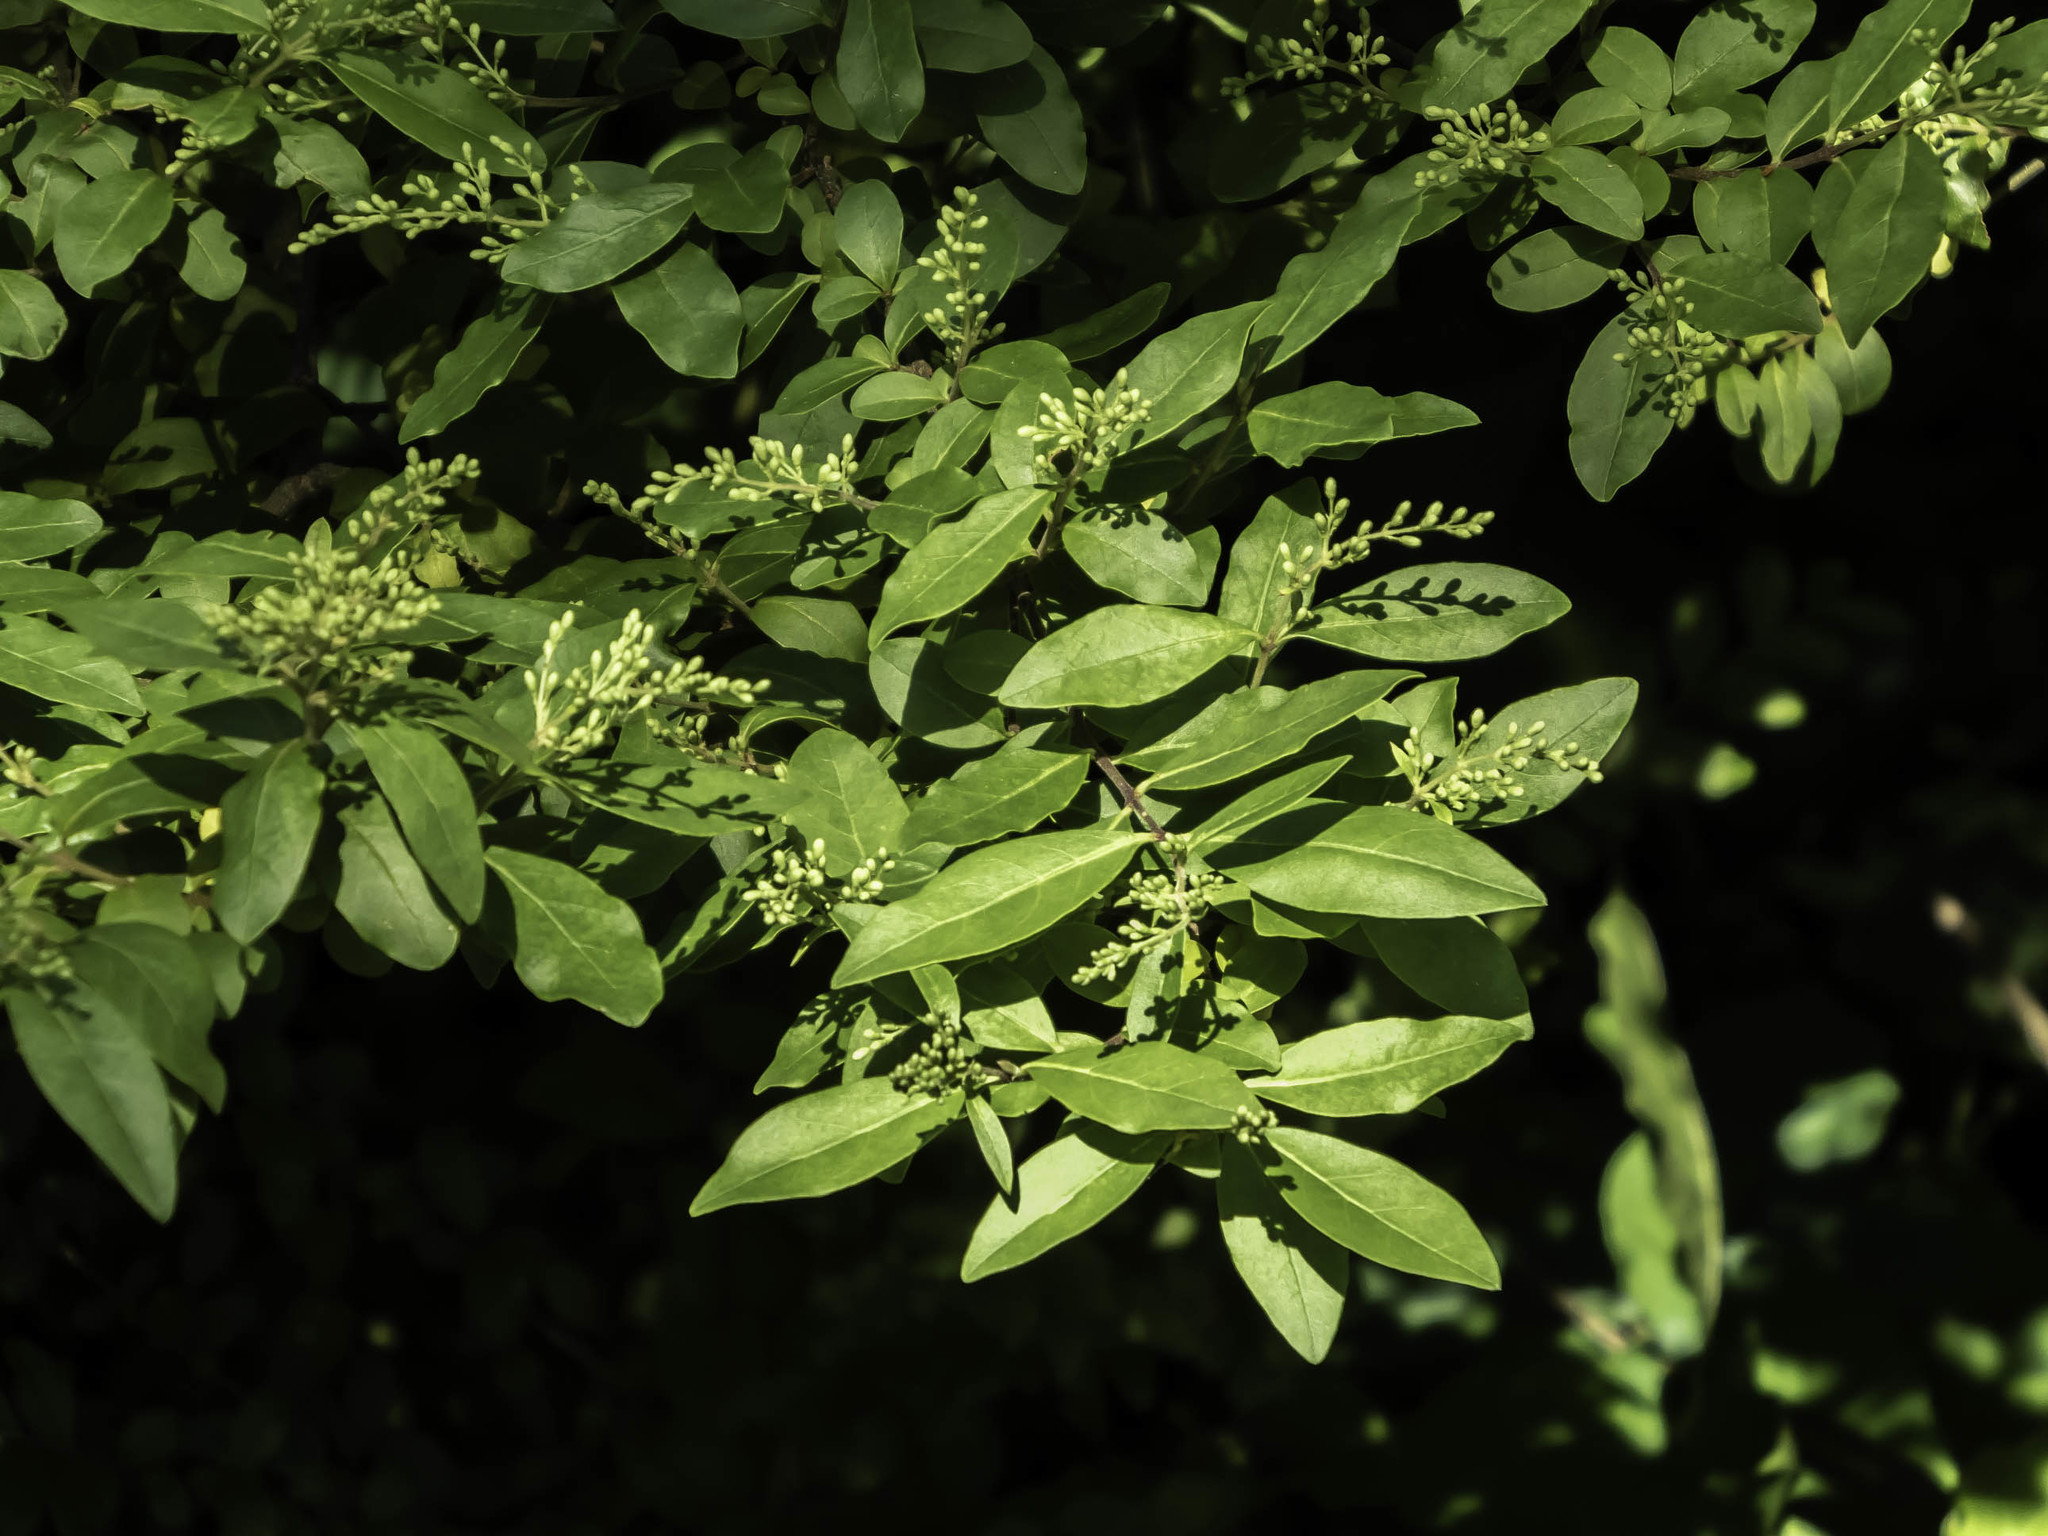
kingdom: Plantae
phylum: Tracheophyta
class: Magnoliopsida
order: Lamiales
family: Oleaceae
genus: Ligustrum
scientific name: Ligustrum sinense
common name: Chinese privet
